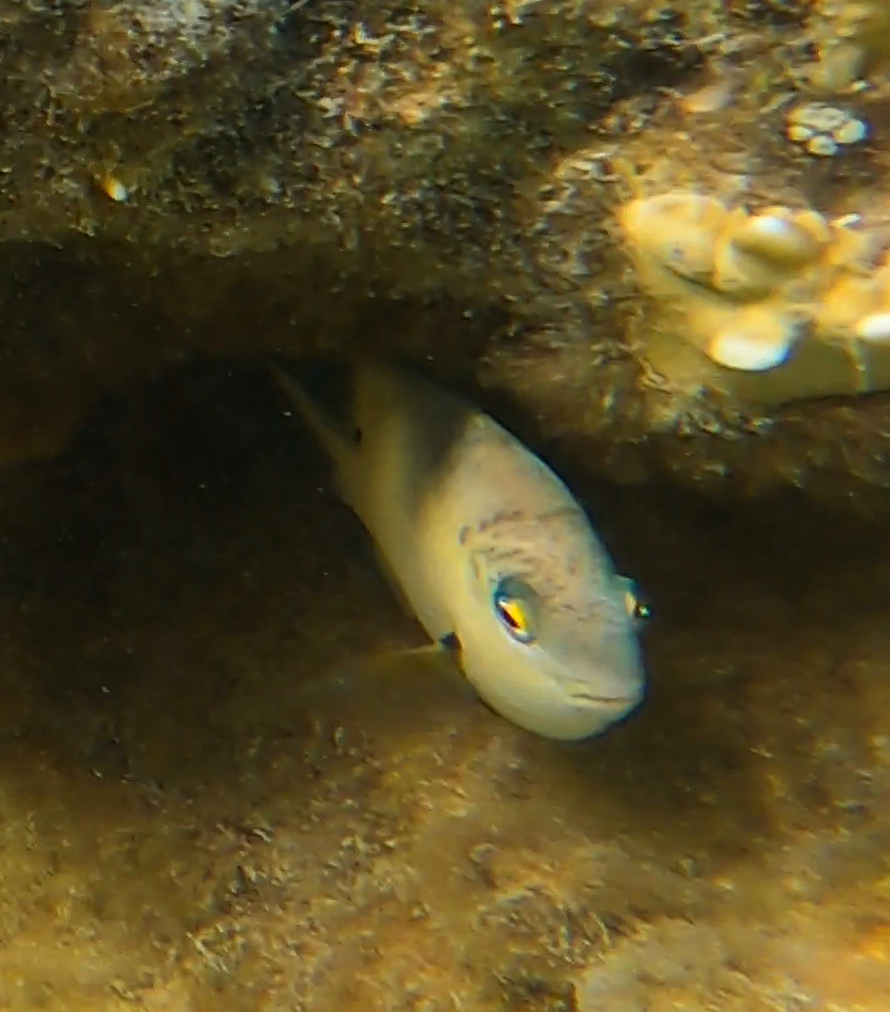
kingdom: Animalia
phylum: Chordata
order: Perciformes
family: Pomacentridae
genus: Stegastes
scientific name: Stegastes nigricans
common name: Dusky gregory
